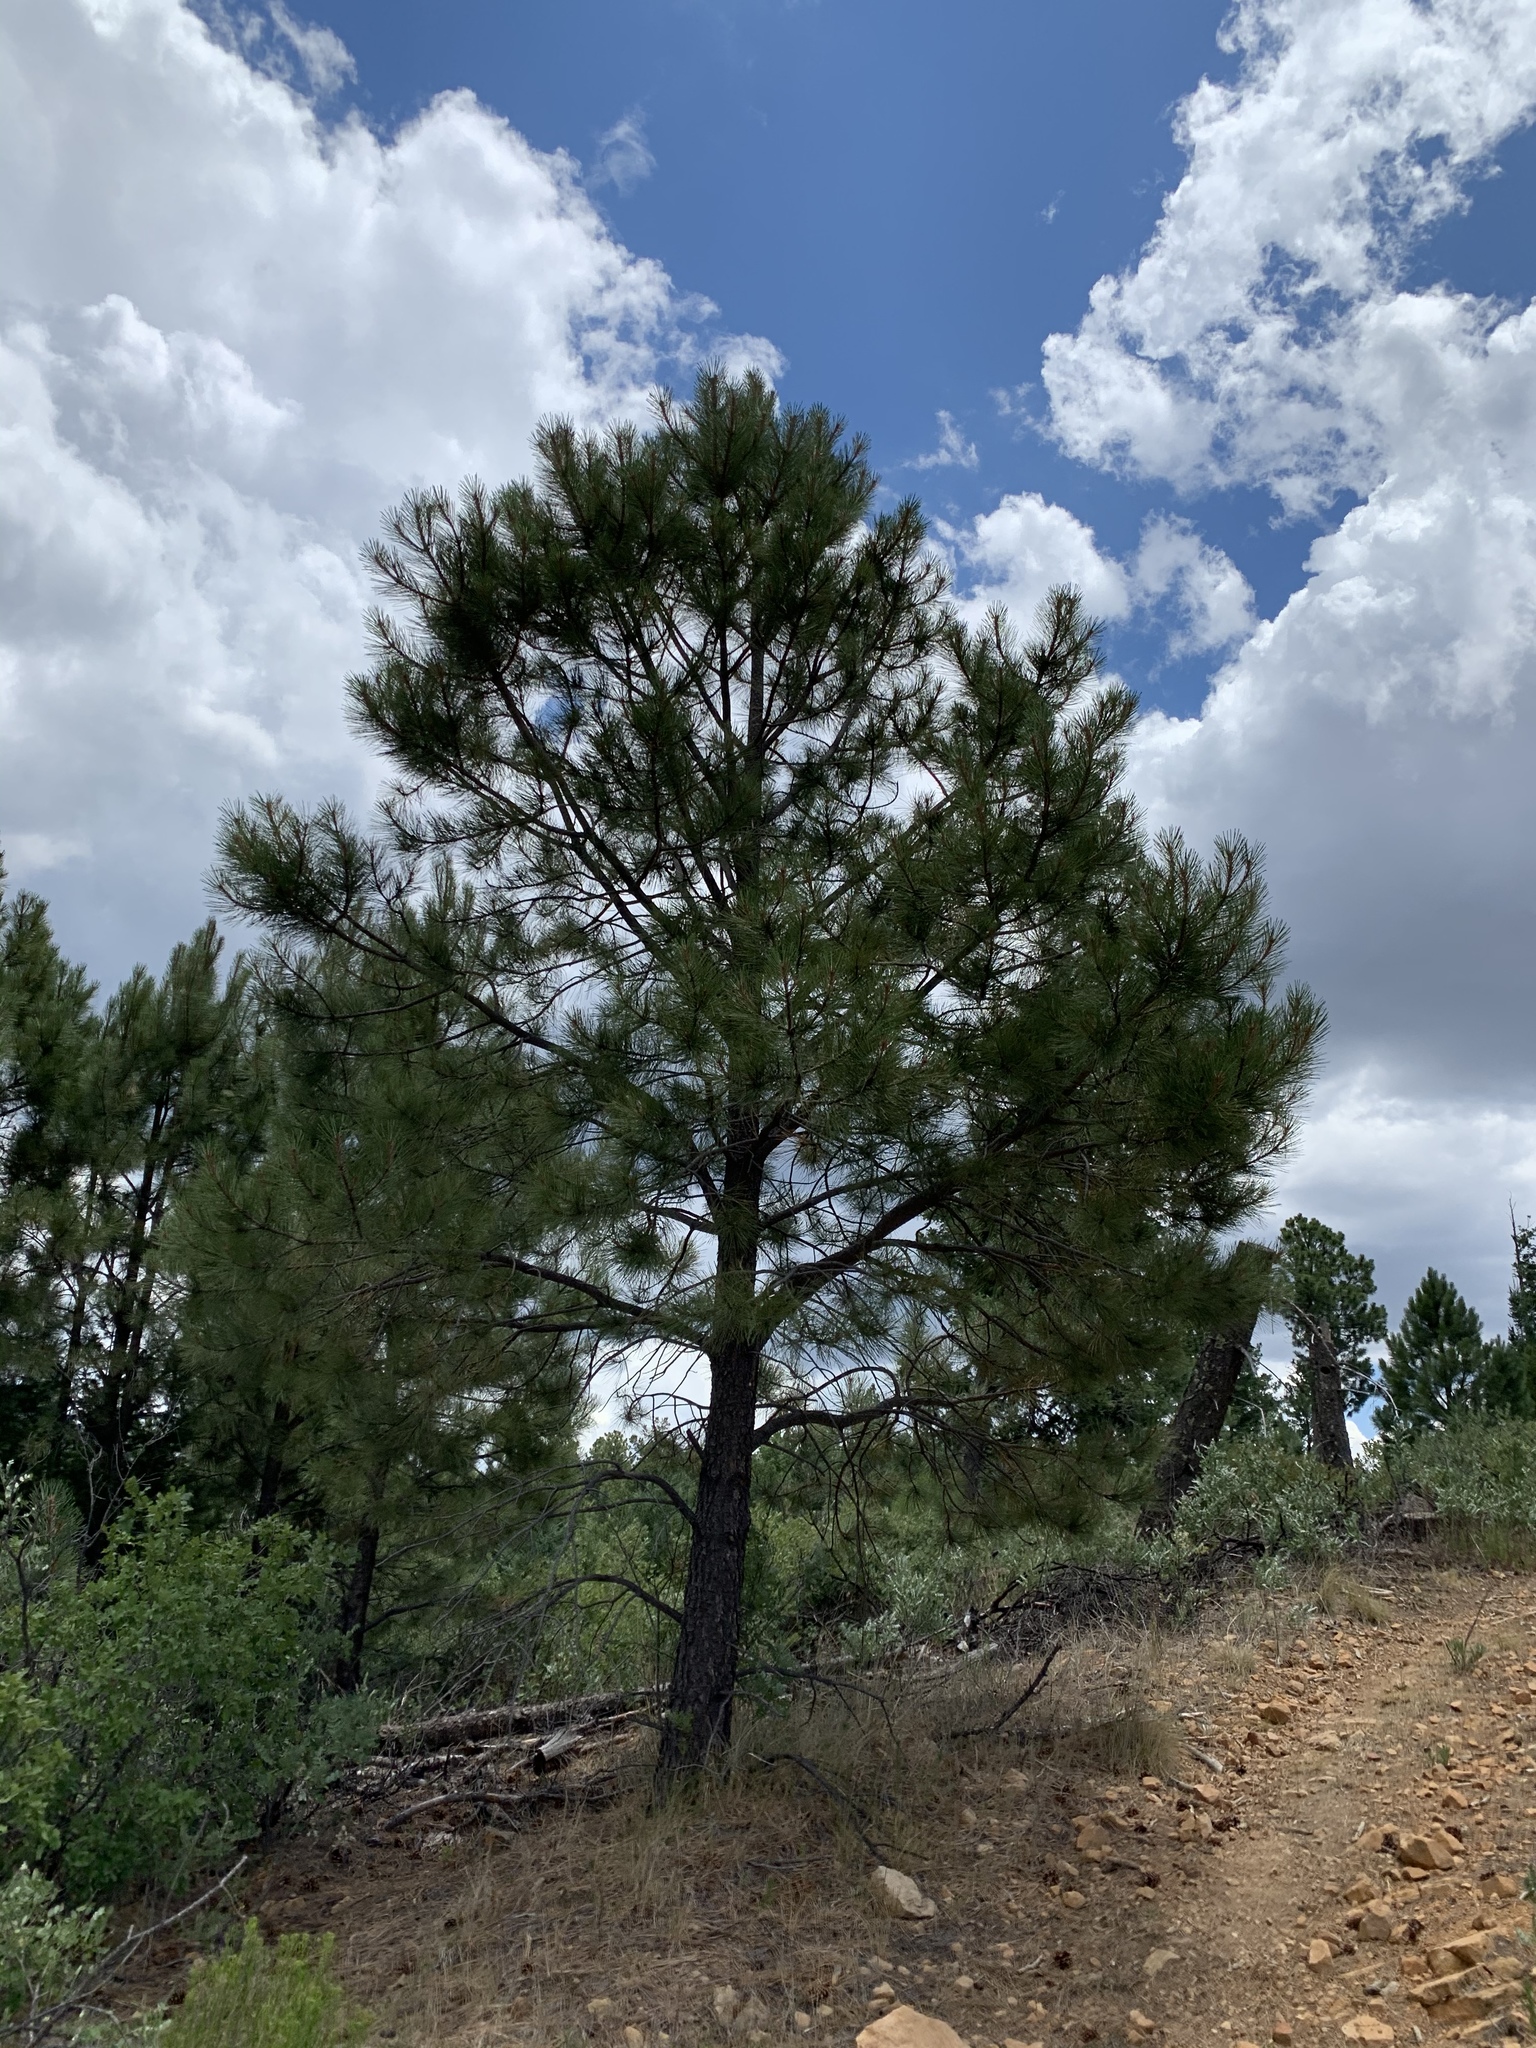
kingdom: Plantae
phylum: Tracheophyta
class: Pinopsida
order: Pinales
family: Pinaceae
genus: Pinus
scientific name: Pinus ponderosa
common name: Western yellow-pine
